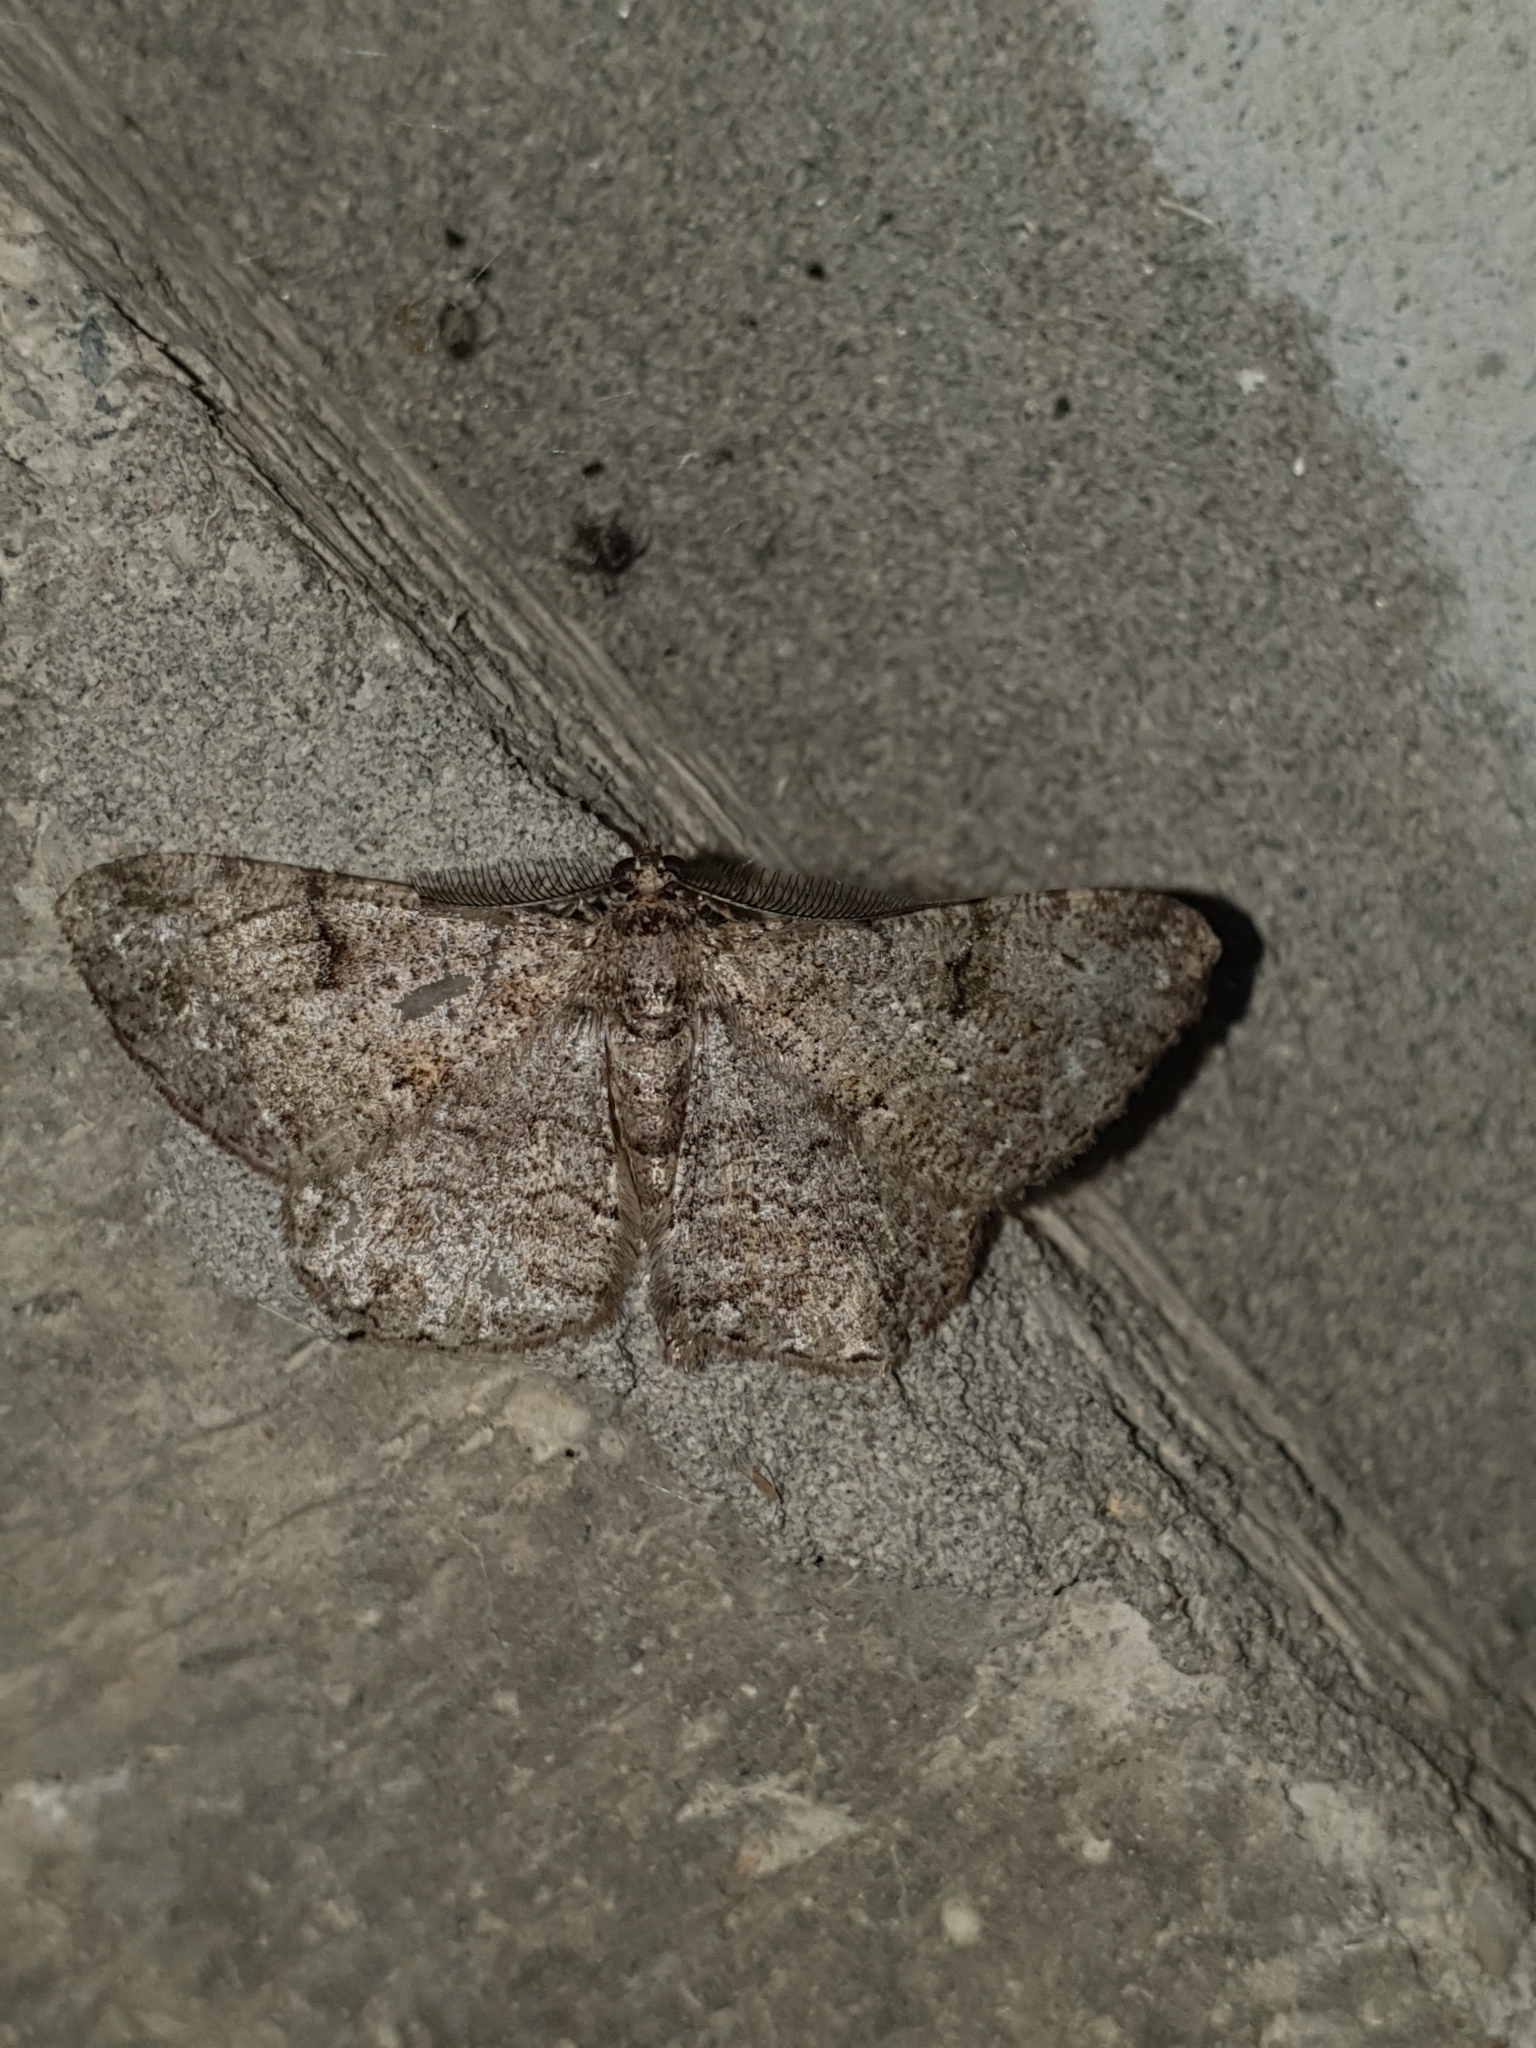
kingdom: Animalia
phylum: Arthropoda
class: Insecta
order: Lepidoptera
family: Geometridae
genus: Peribatodes
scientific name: Peribatodes rhomboidaria
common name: Willow beauty
